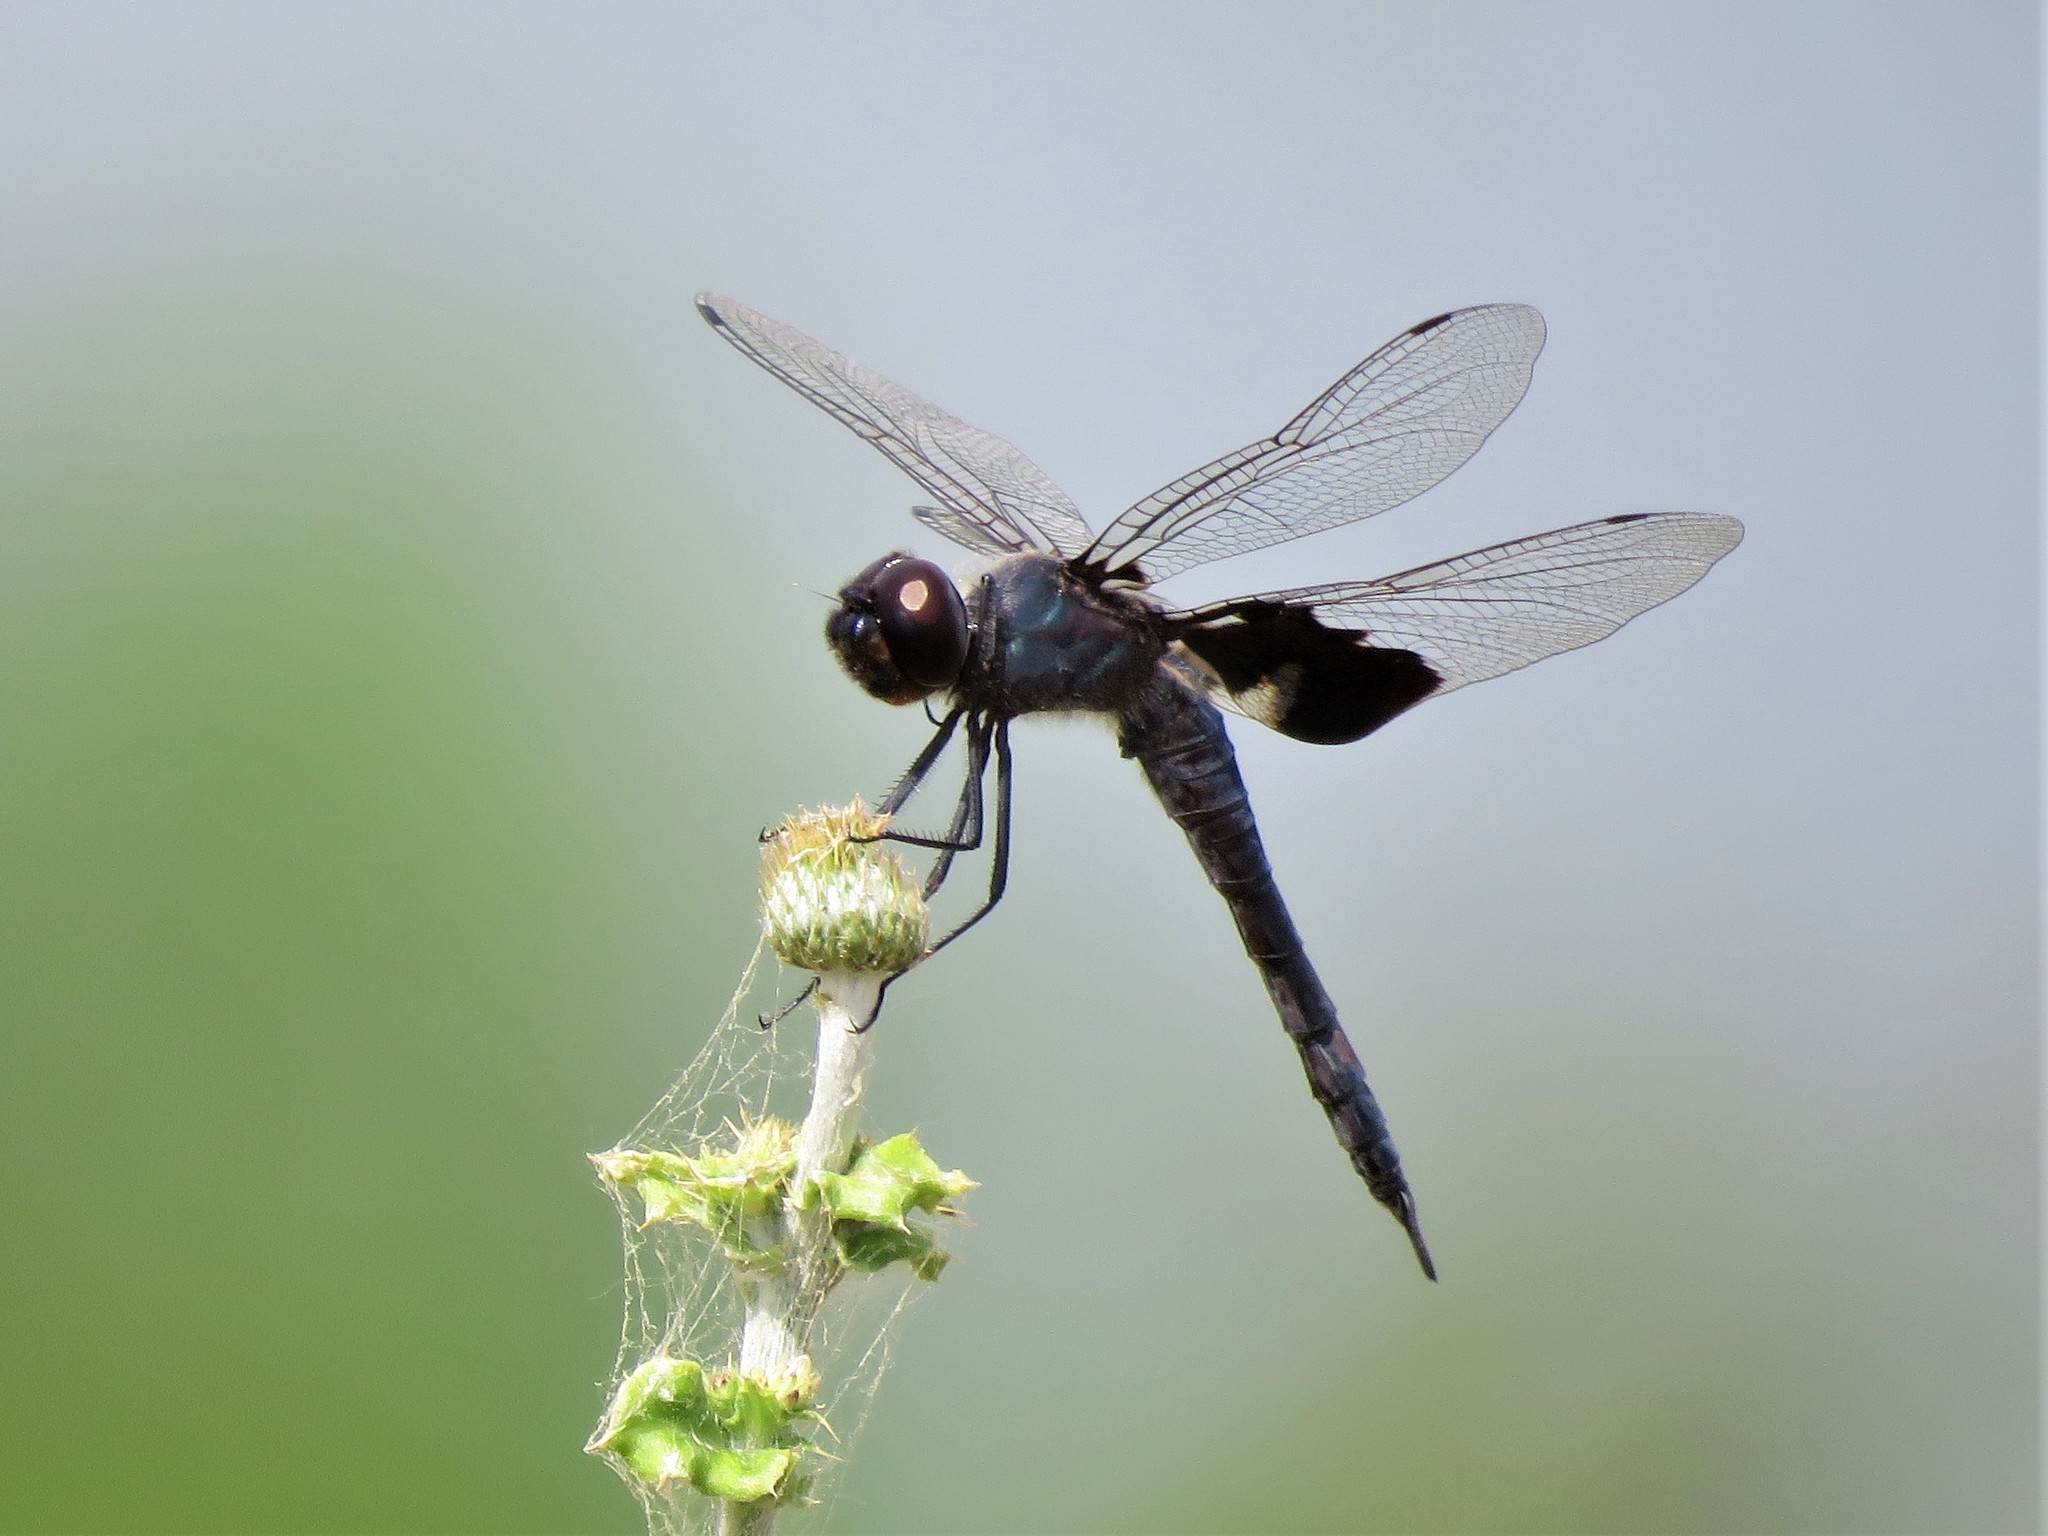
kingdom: Animalia
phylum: Arthropoda
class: Insecta
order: Odonata
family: Libellulidae
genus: Tramea
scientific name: Tramea lacerata
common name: Black saddlebags
